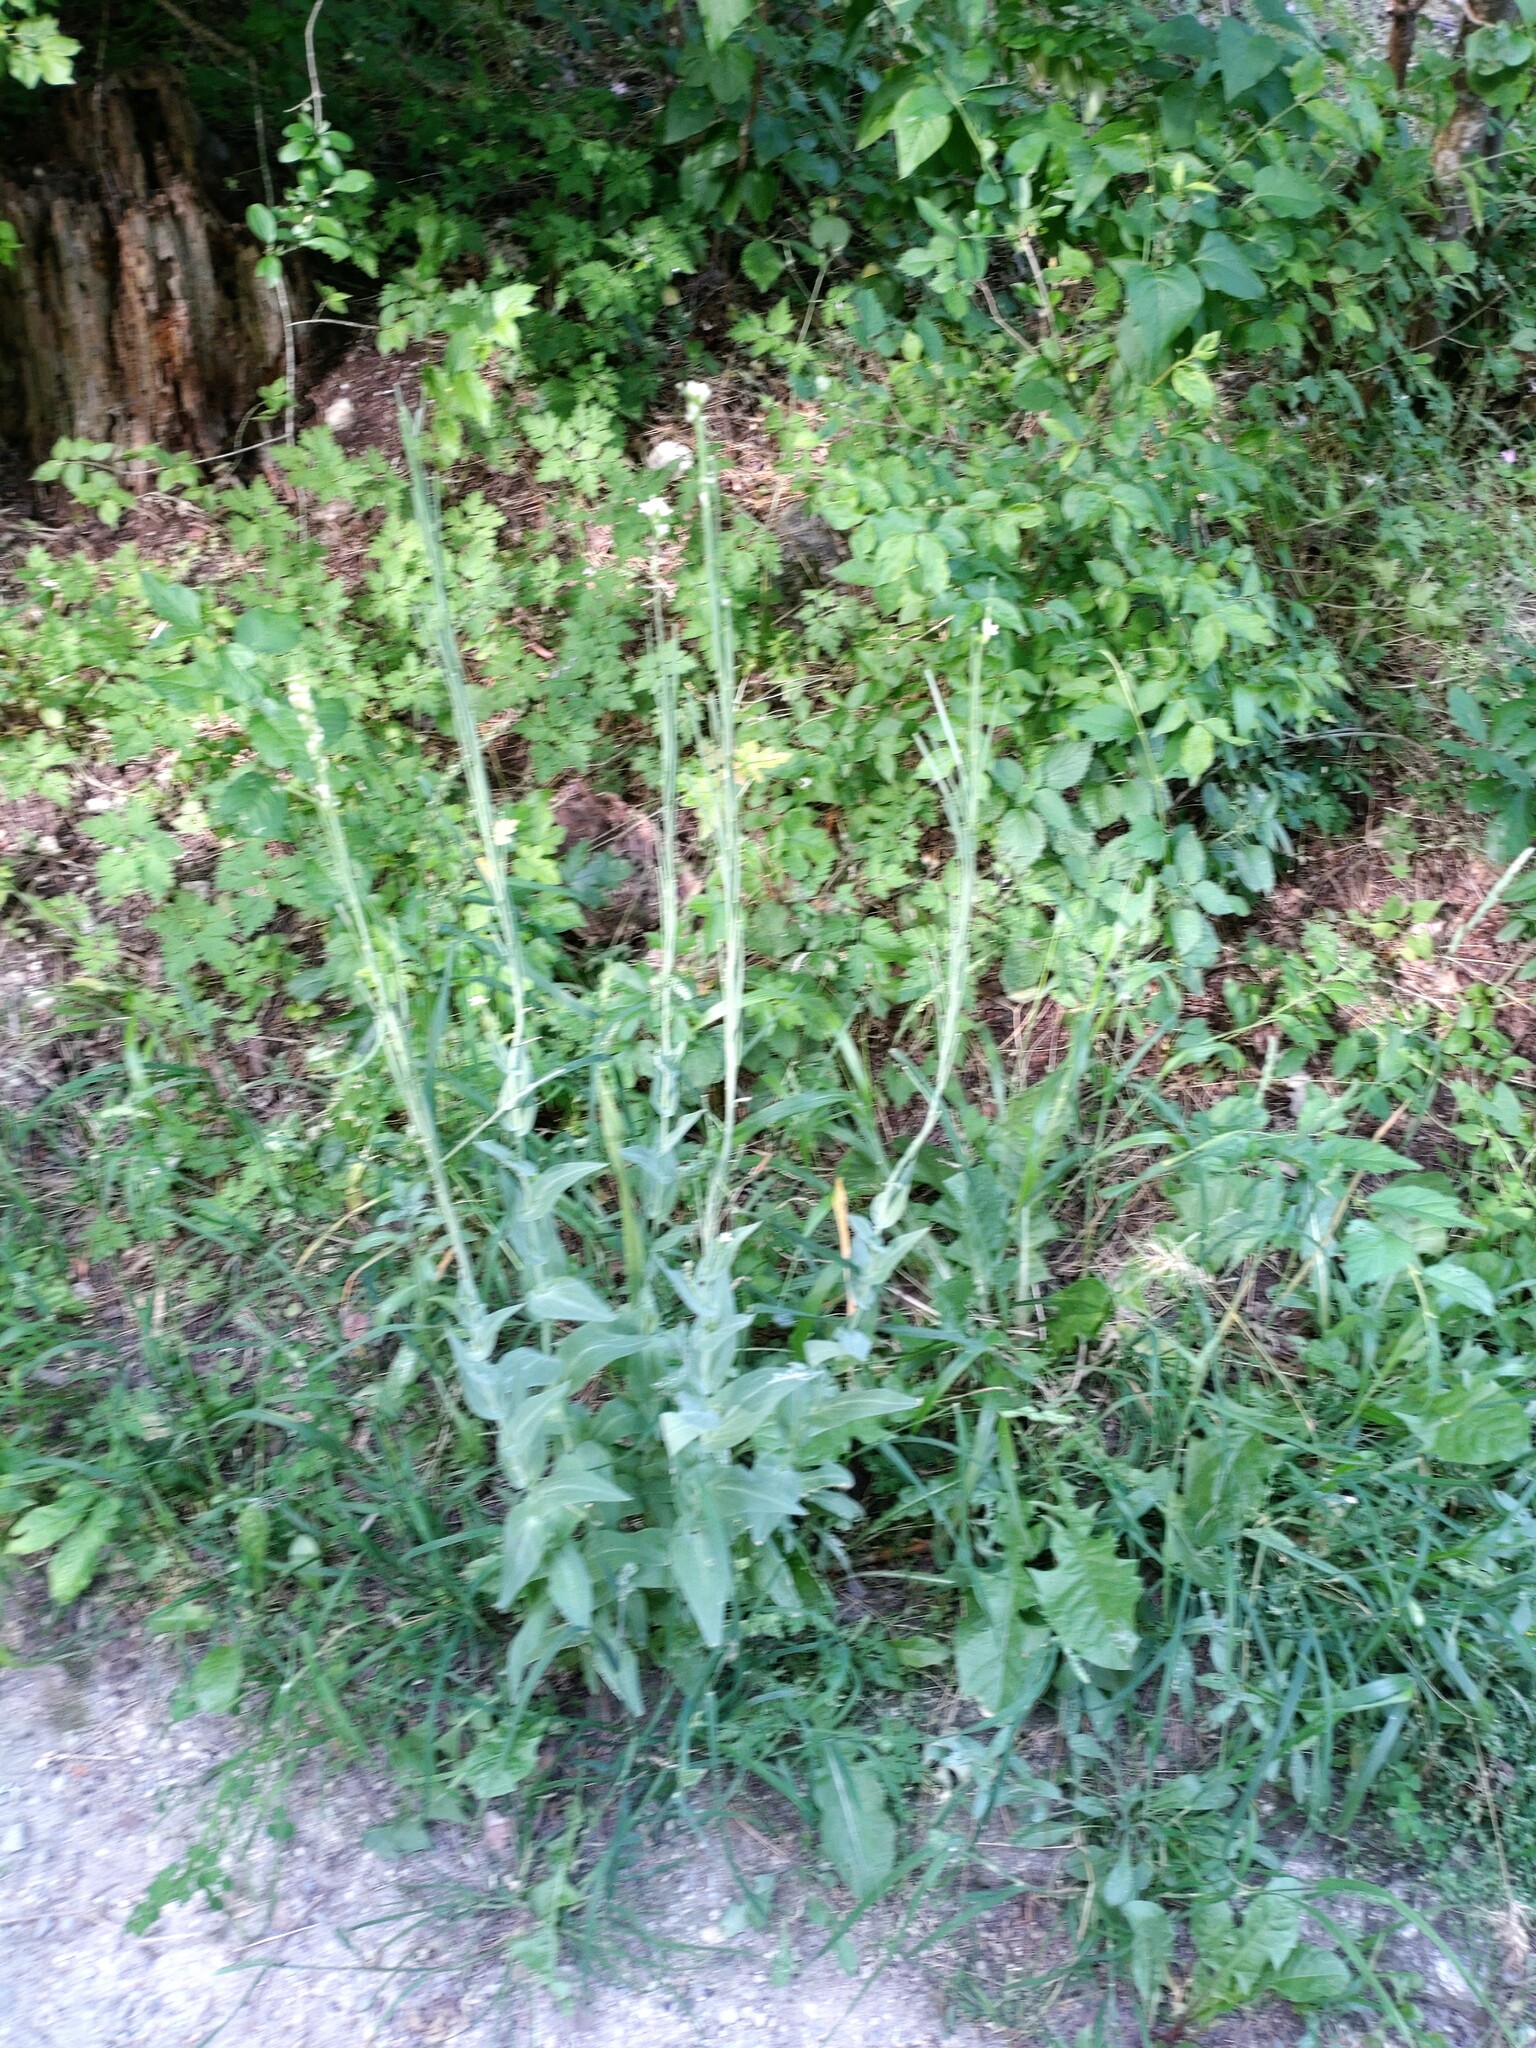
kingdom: Plantae
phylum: Tracheophyta
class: Magnoliopsida
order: Brassicales
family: Brassicaceae
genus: Turritis
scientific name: Turritis glabra
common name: Tower rockcress
